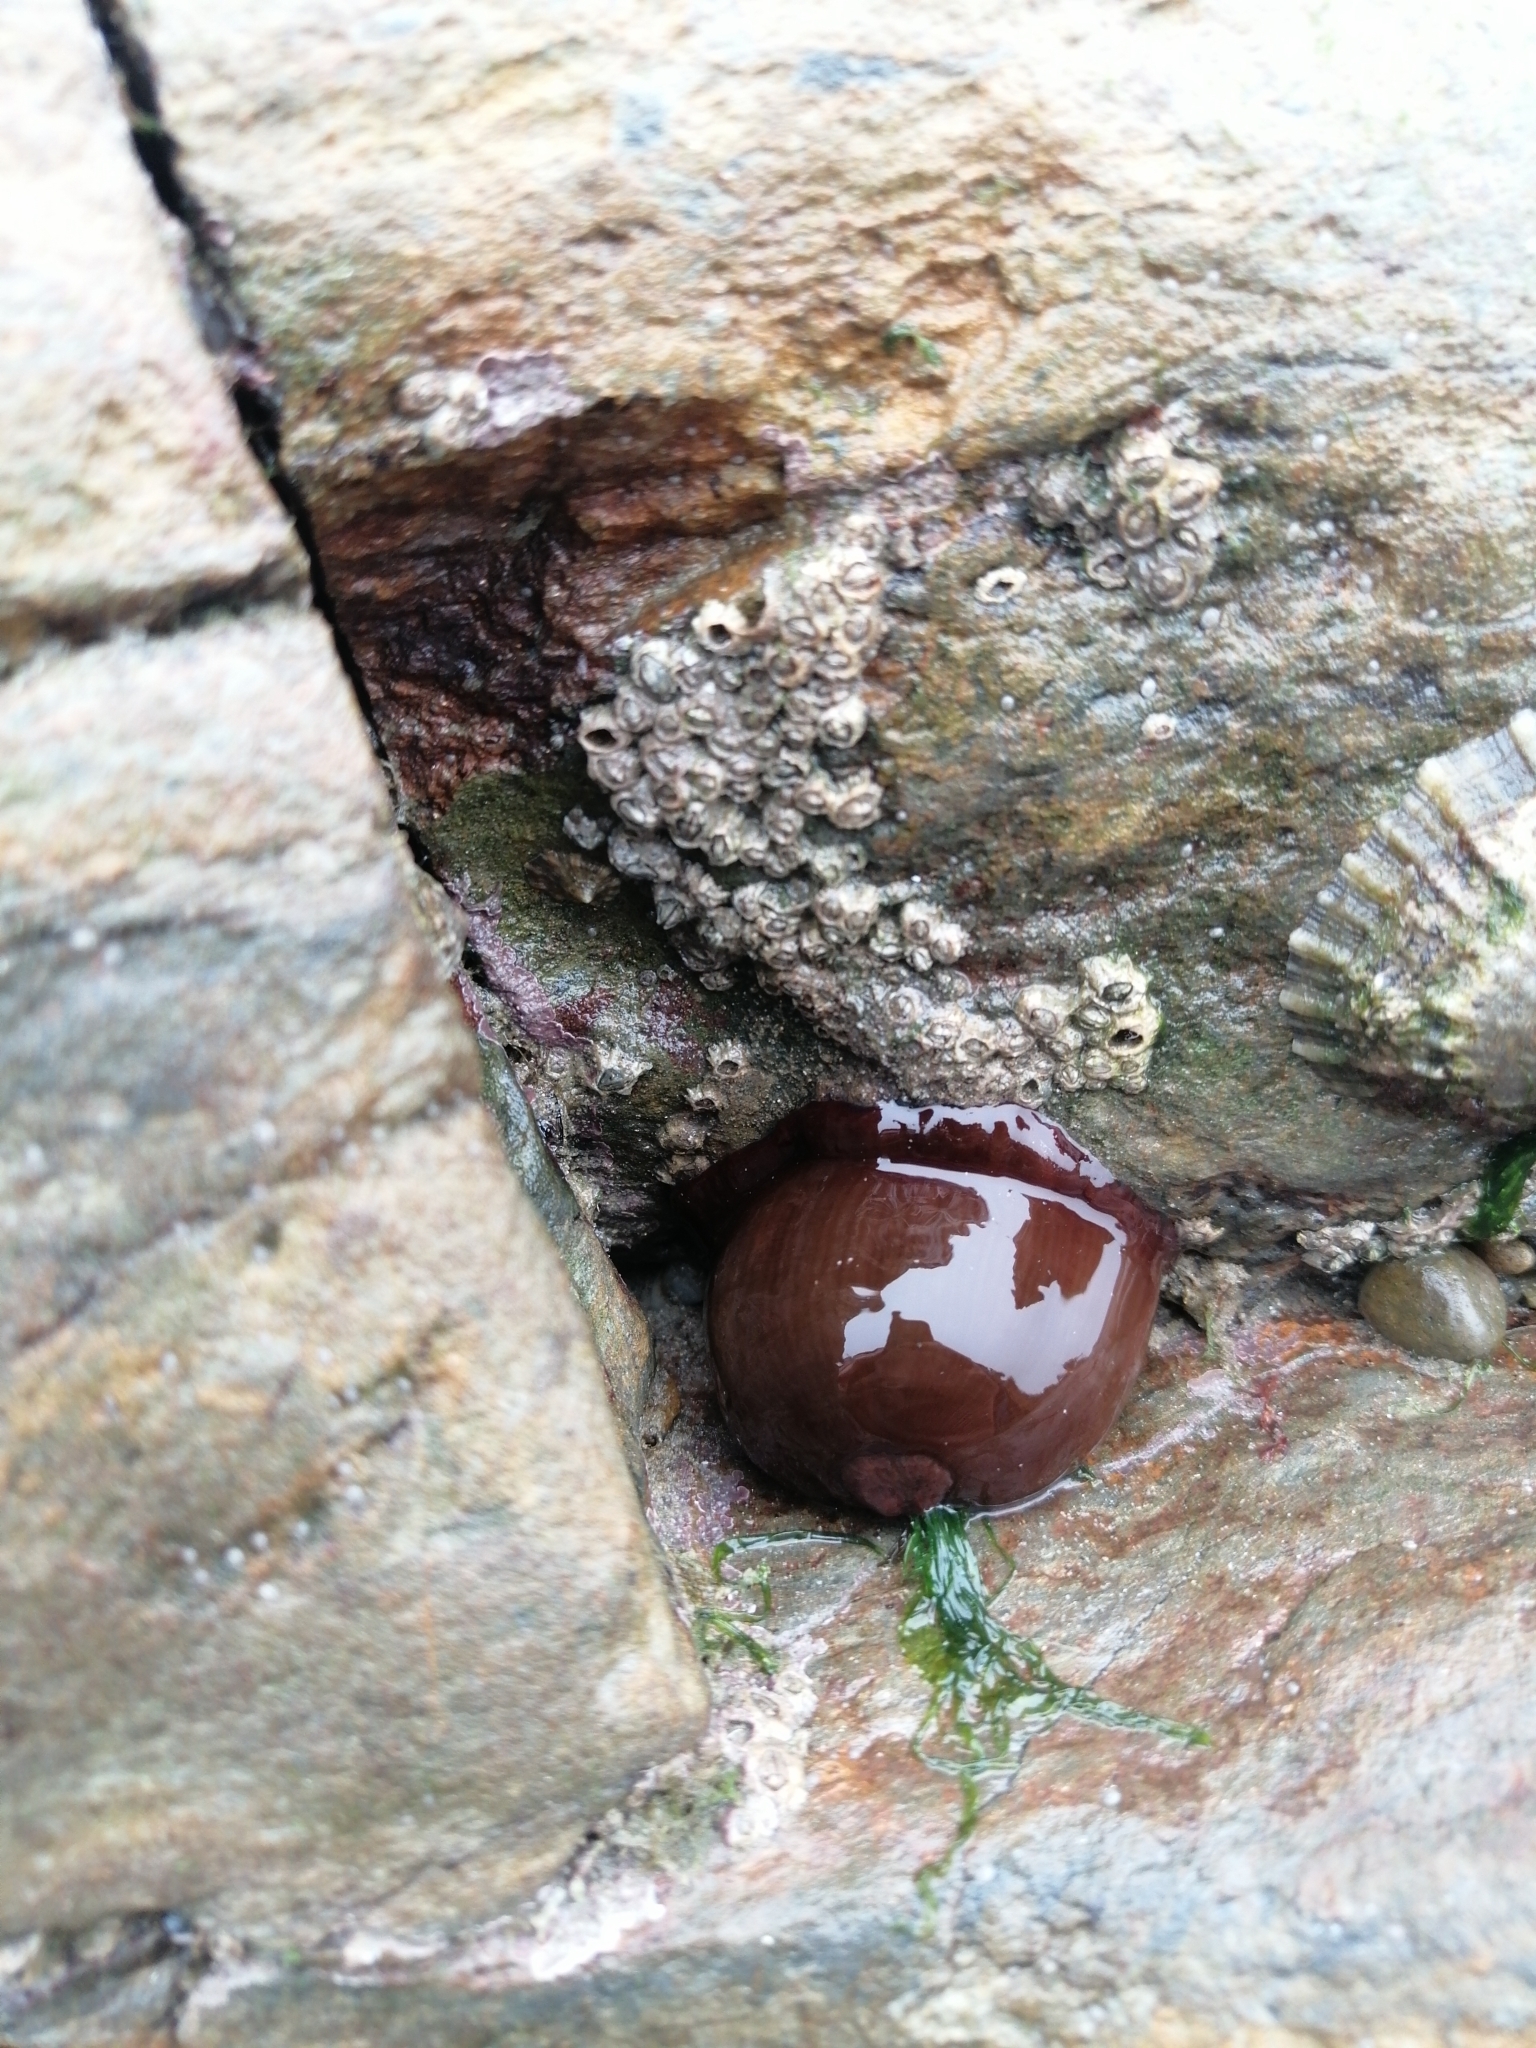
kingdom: Animalia
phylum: Cnidaria
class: Anthozoa
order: Actiniaria
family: Actiniidae
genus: Actinia
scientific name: Actinia equina
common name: Beadlet anemone
